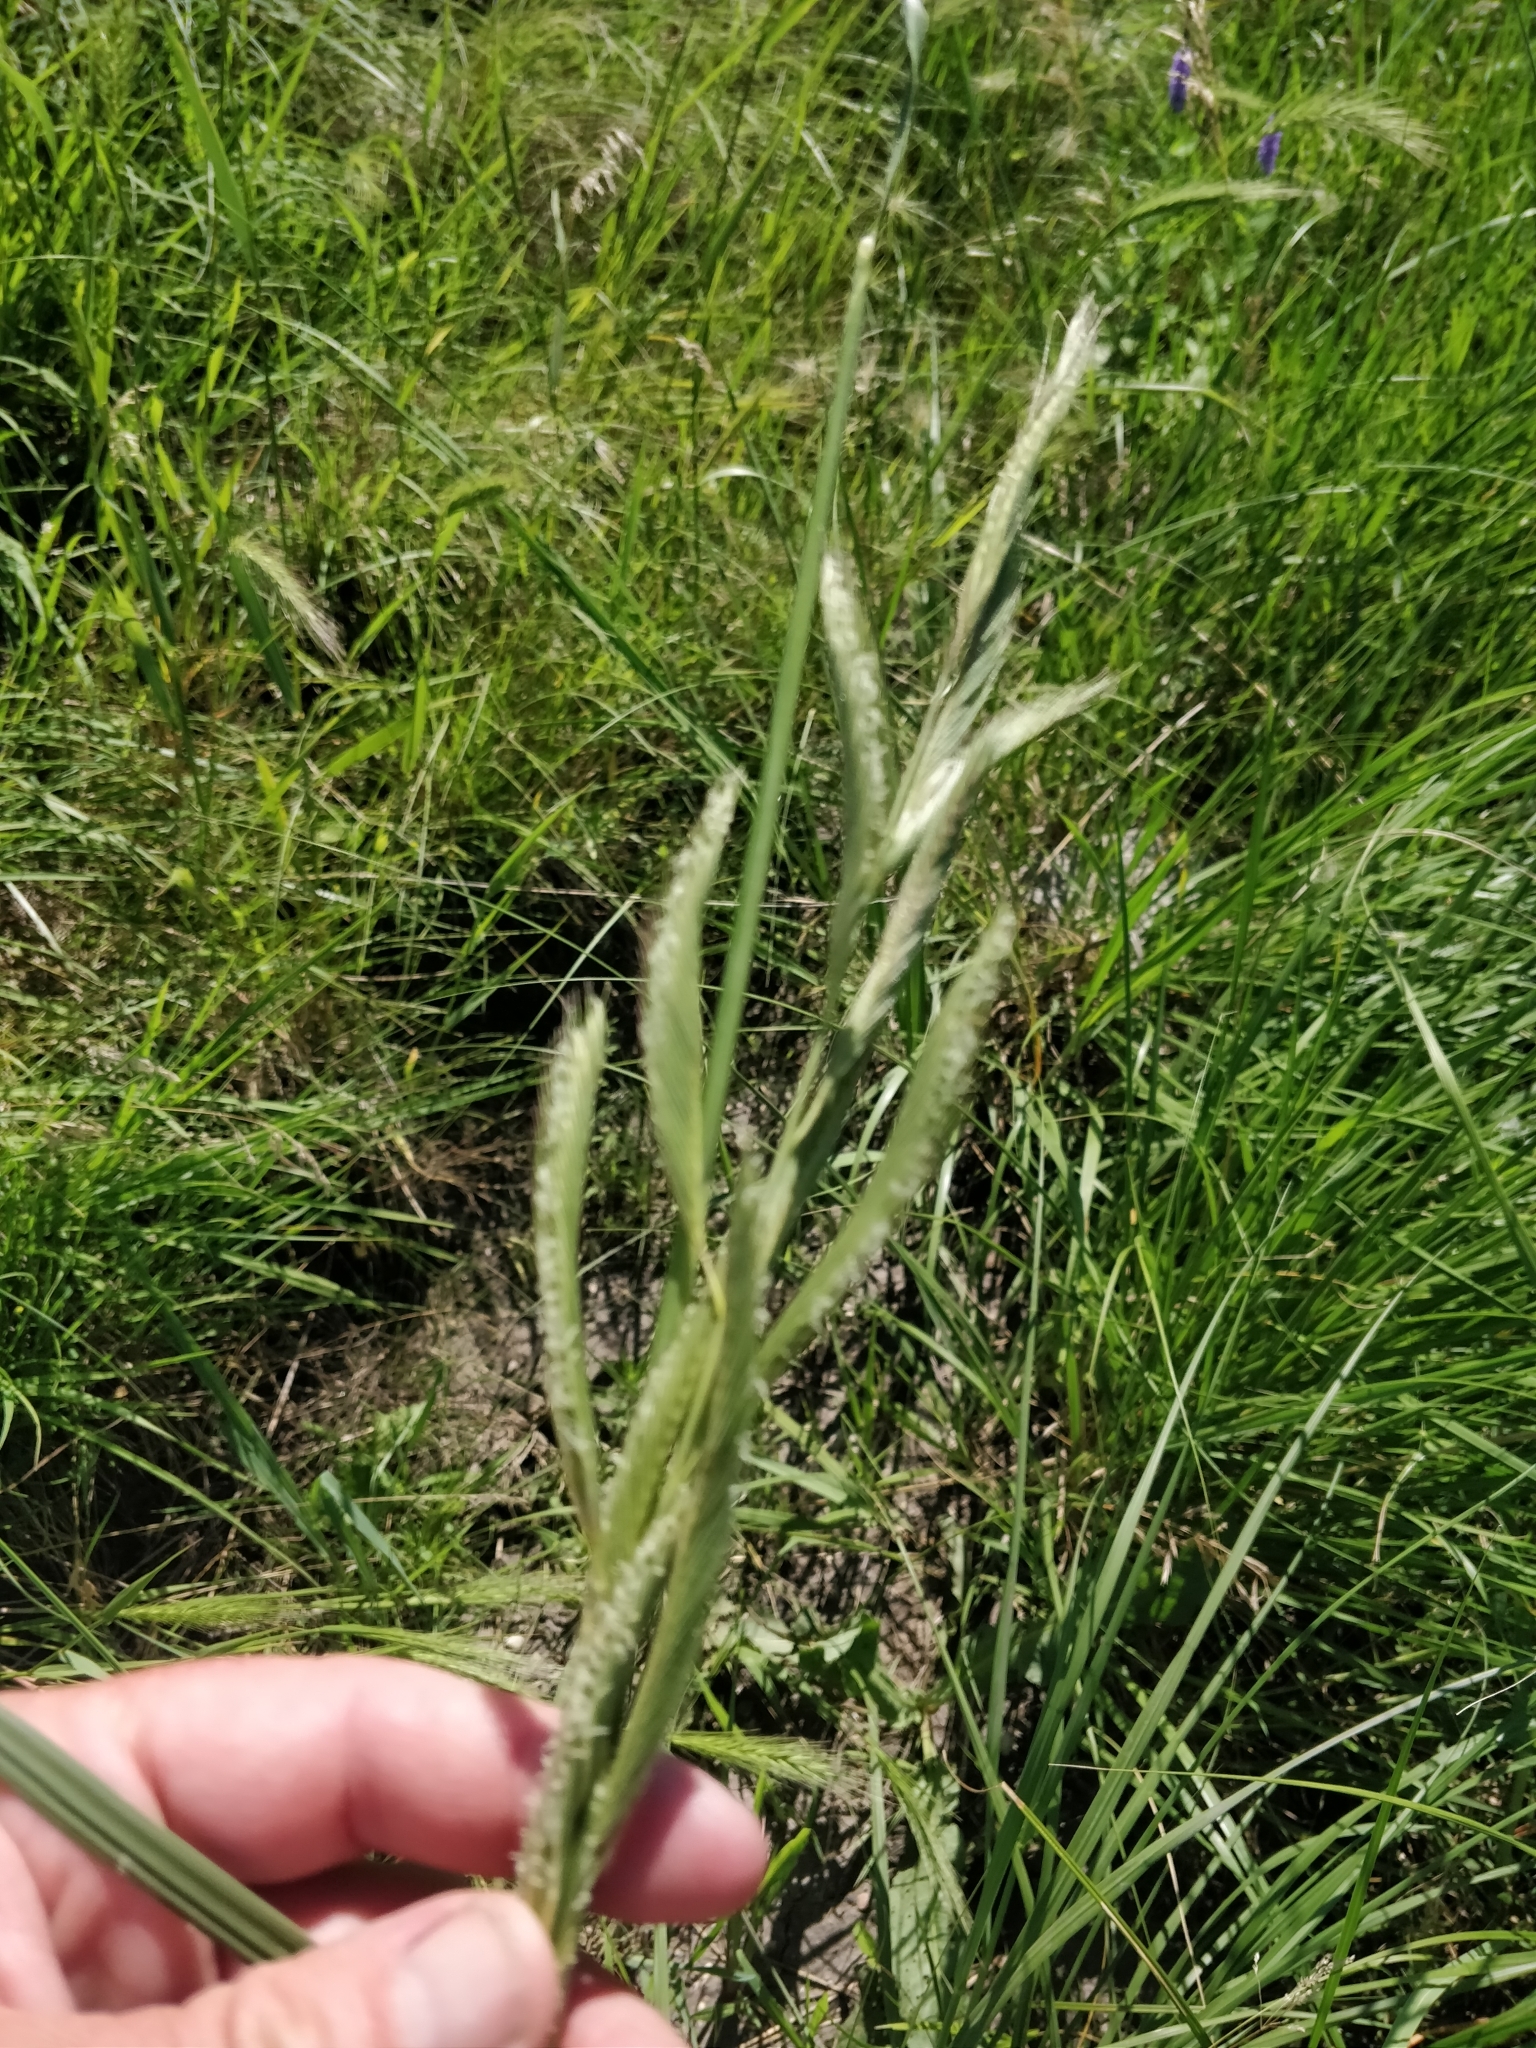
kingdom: Plantae
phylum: Tracheophyta
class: Liliopsida
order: Poales
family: Poaceae
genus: Sporobolus
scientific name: Sporobolus michauxianus
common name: Freshwater cordgrass
